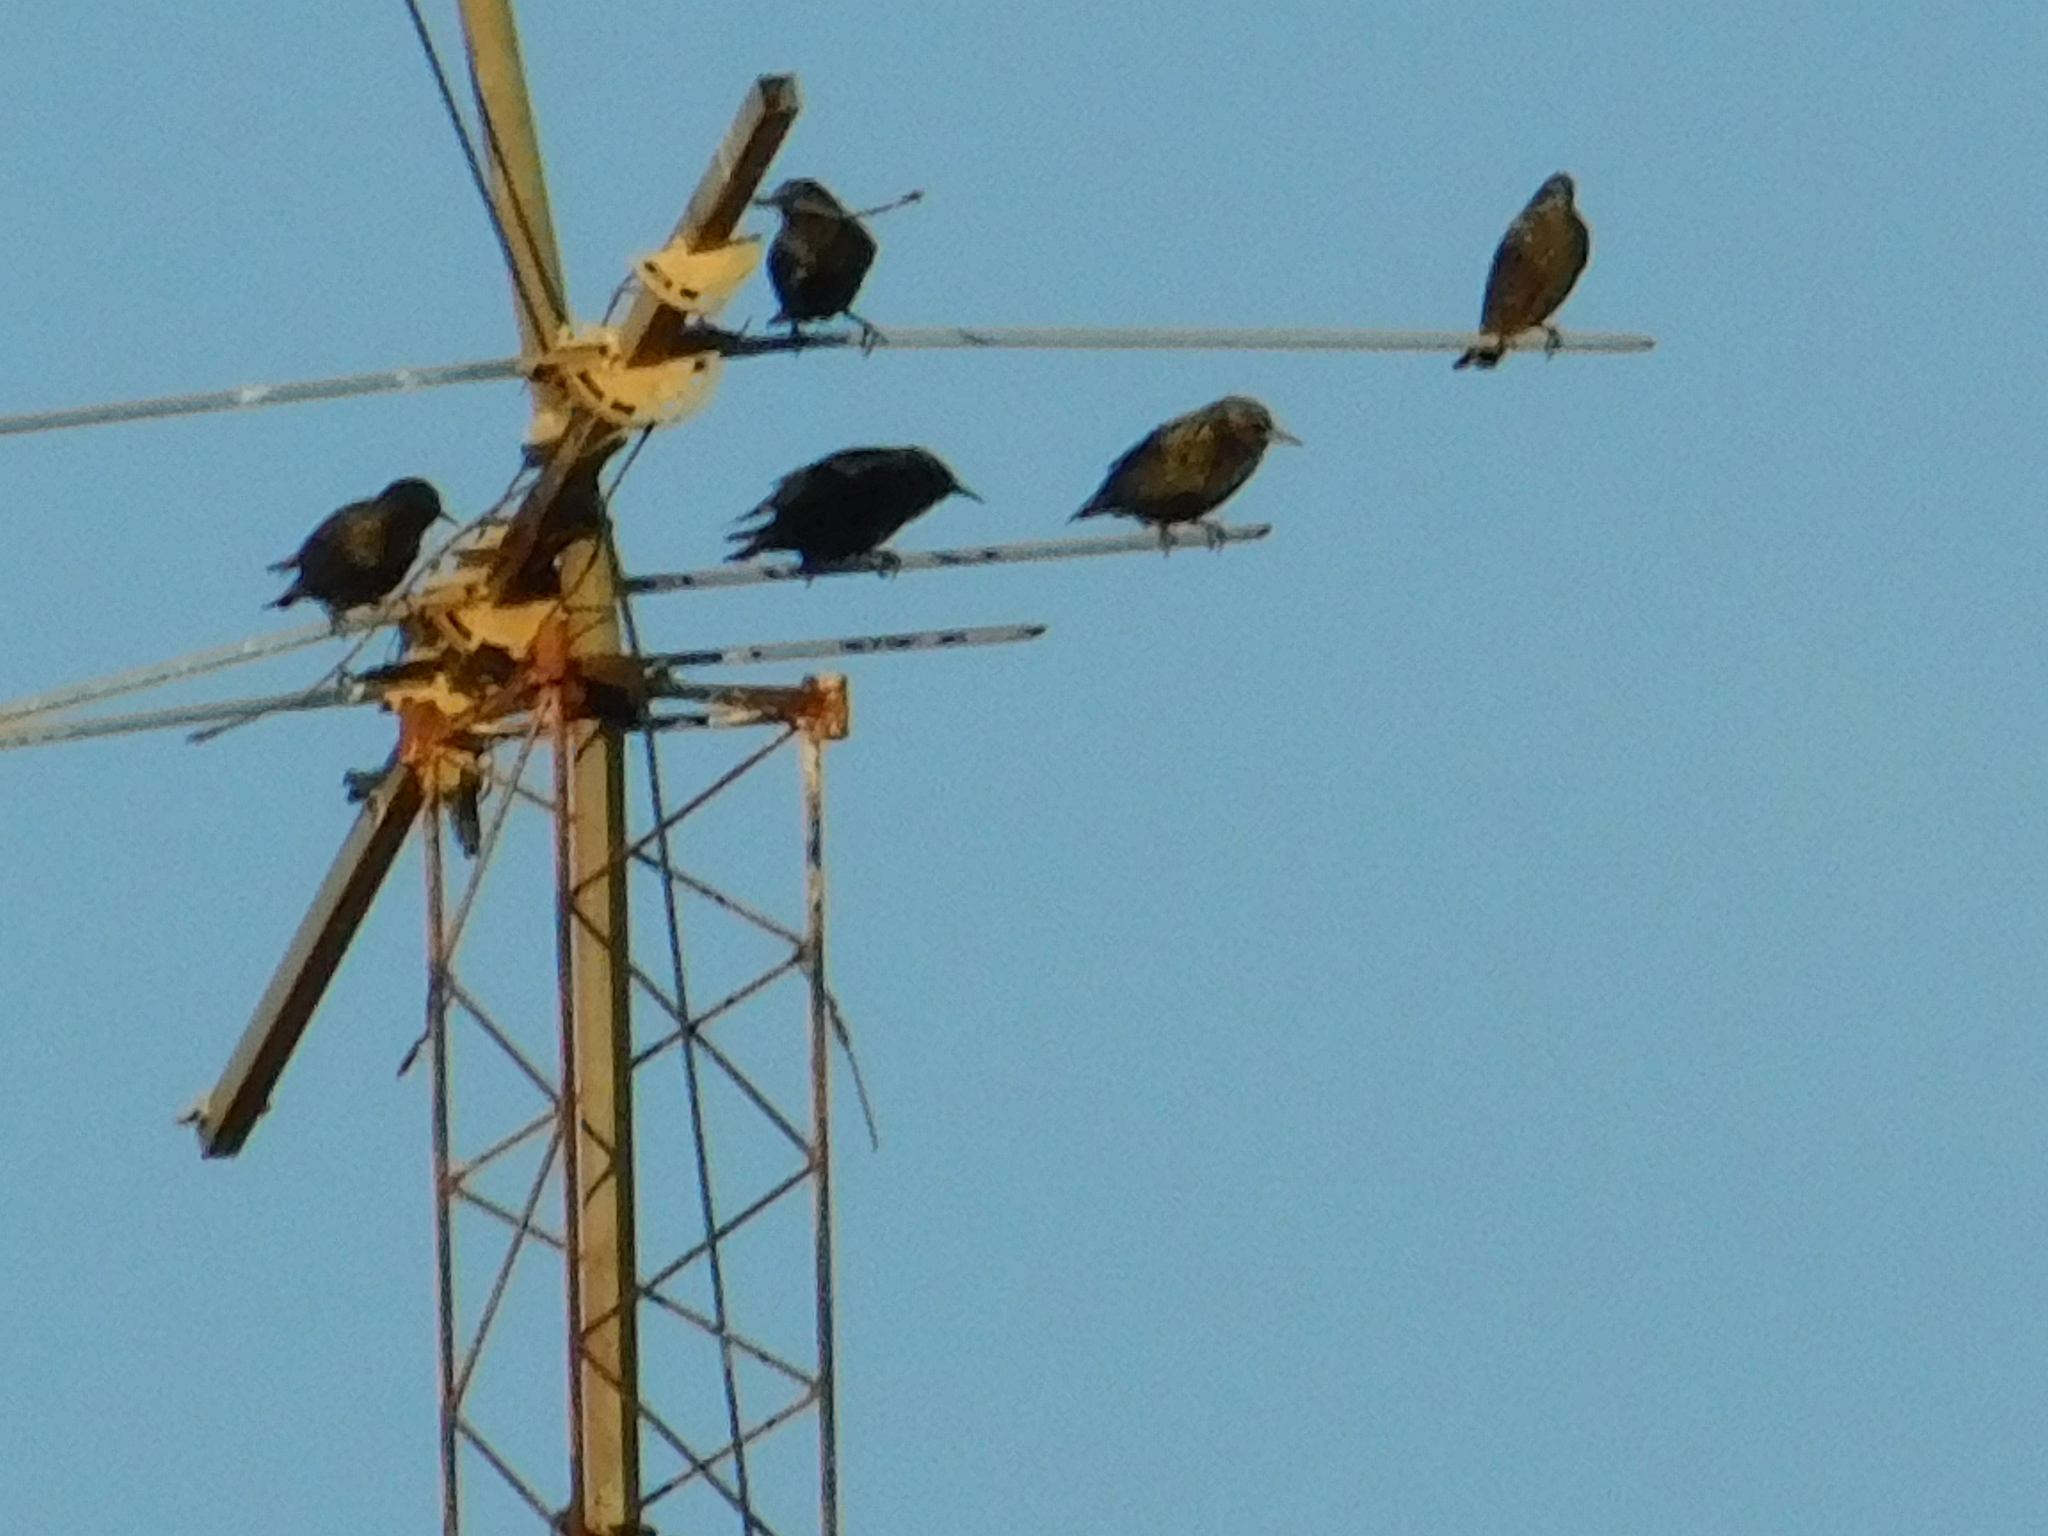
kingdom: Animalia
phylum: Chordata
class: Aves
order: Passeriformes
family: Sturnidae
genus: Sturnus
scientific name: Sturnus vulgaris
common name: Common starling
